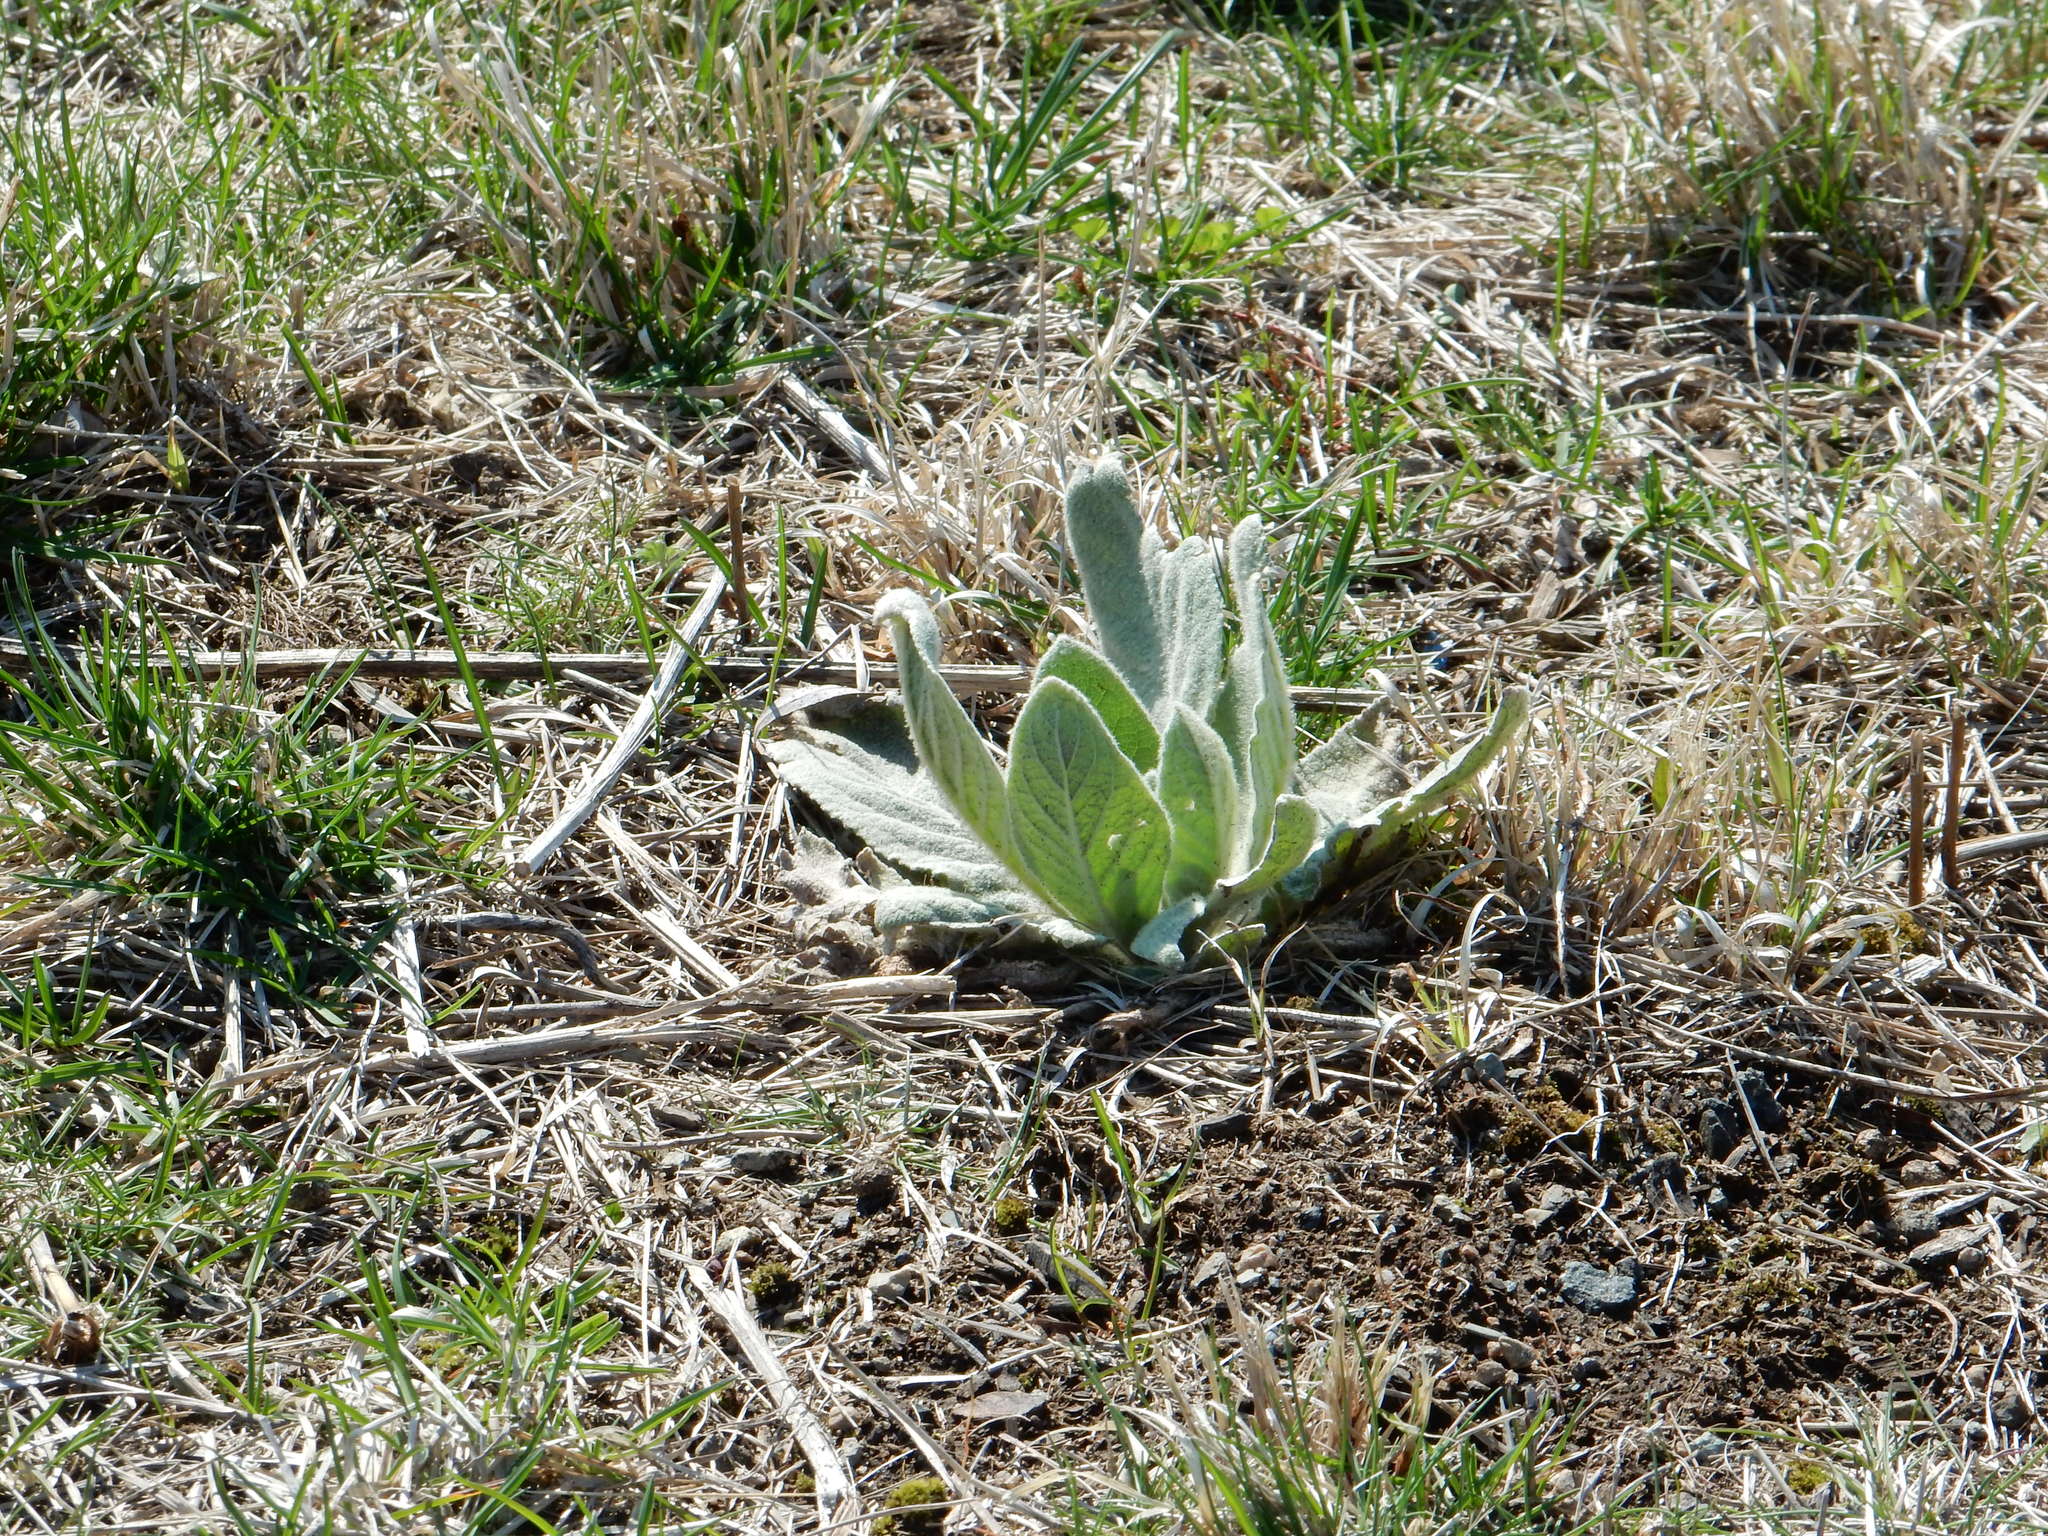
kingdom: Plantae
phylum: Tracheophyta
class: Magnoliopsida
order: Lamiales
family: Scrophulariaceae
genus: Verbascum
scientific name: Verbascum thapsus
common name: Common mullein
